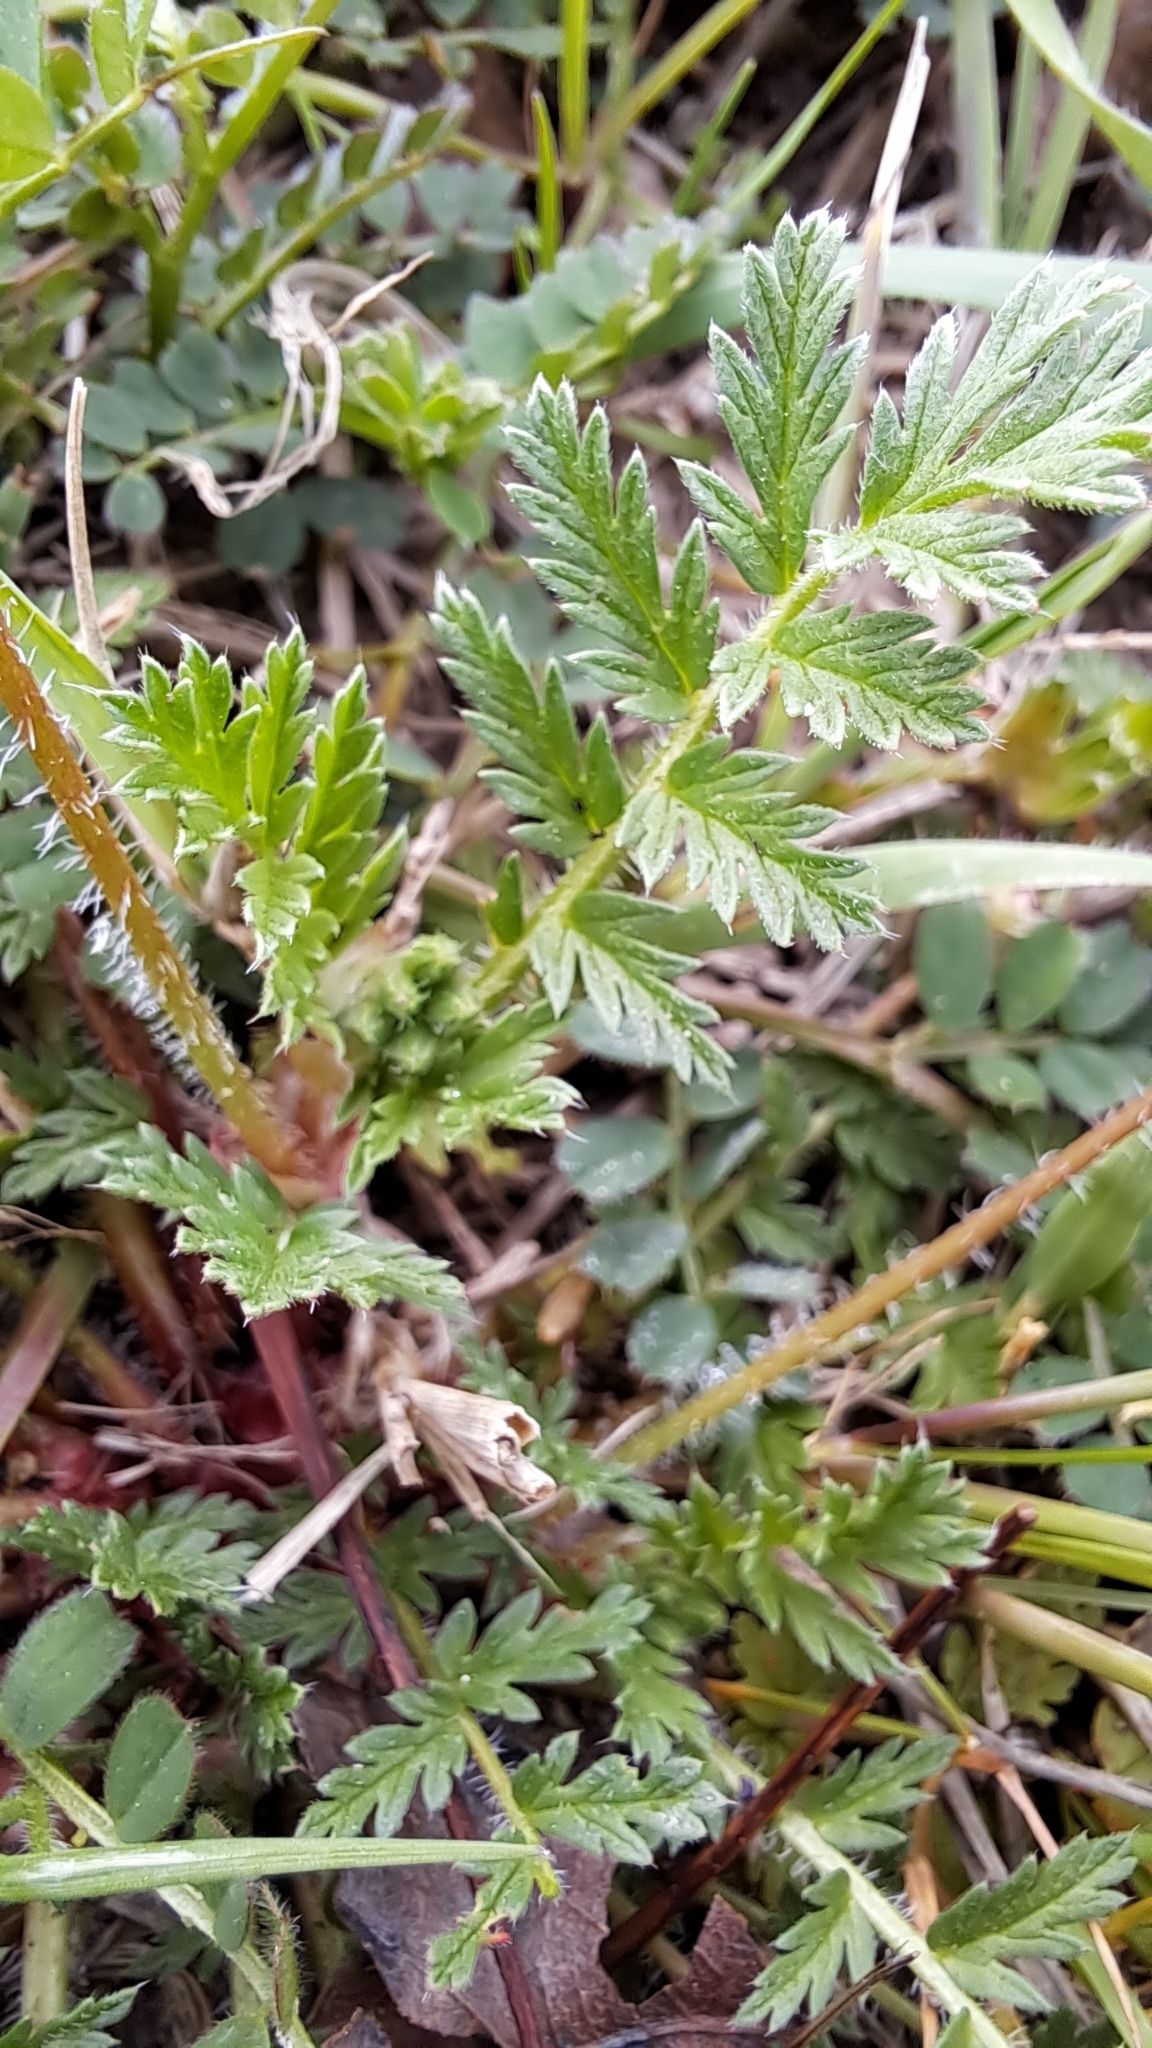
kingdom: Plantae
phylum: Tracheophyta
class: Magnoliopsida
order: Geraniales
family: Geraniaceae
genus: Erodium
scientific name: Erodium cicutarium
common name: Common stork's-bill
